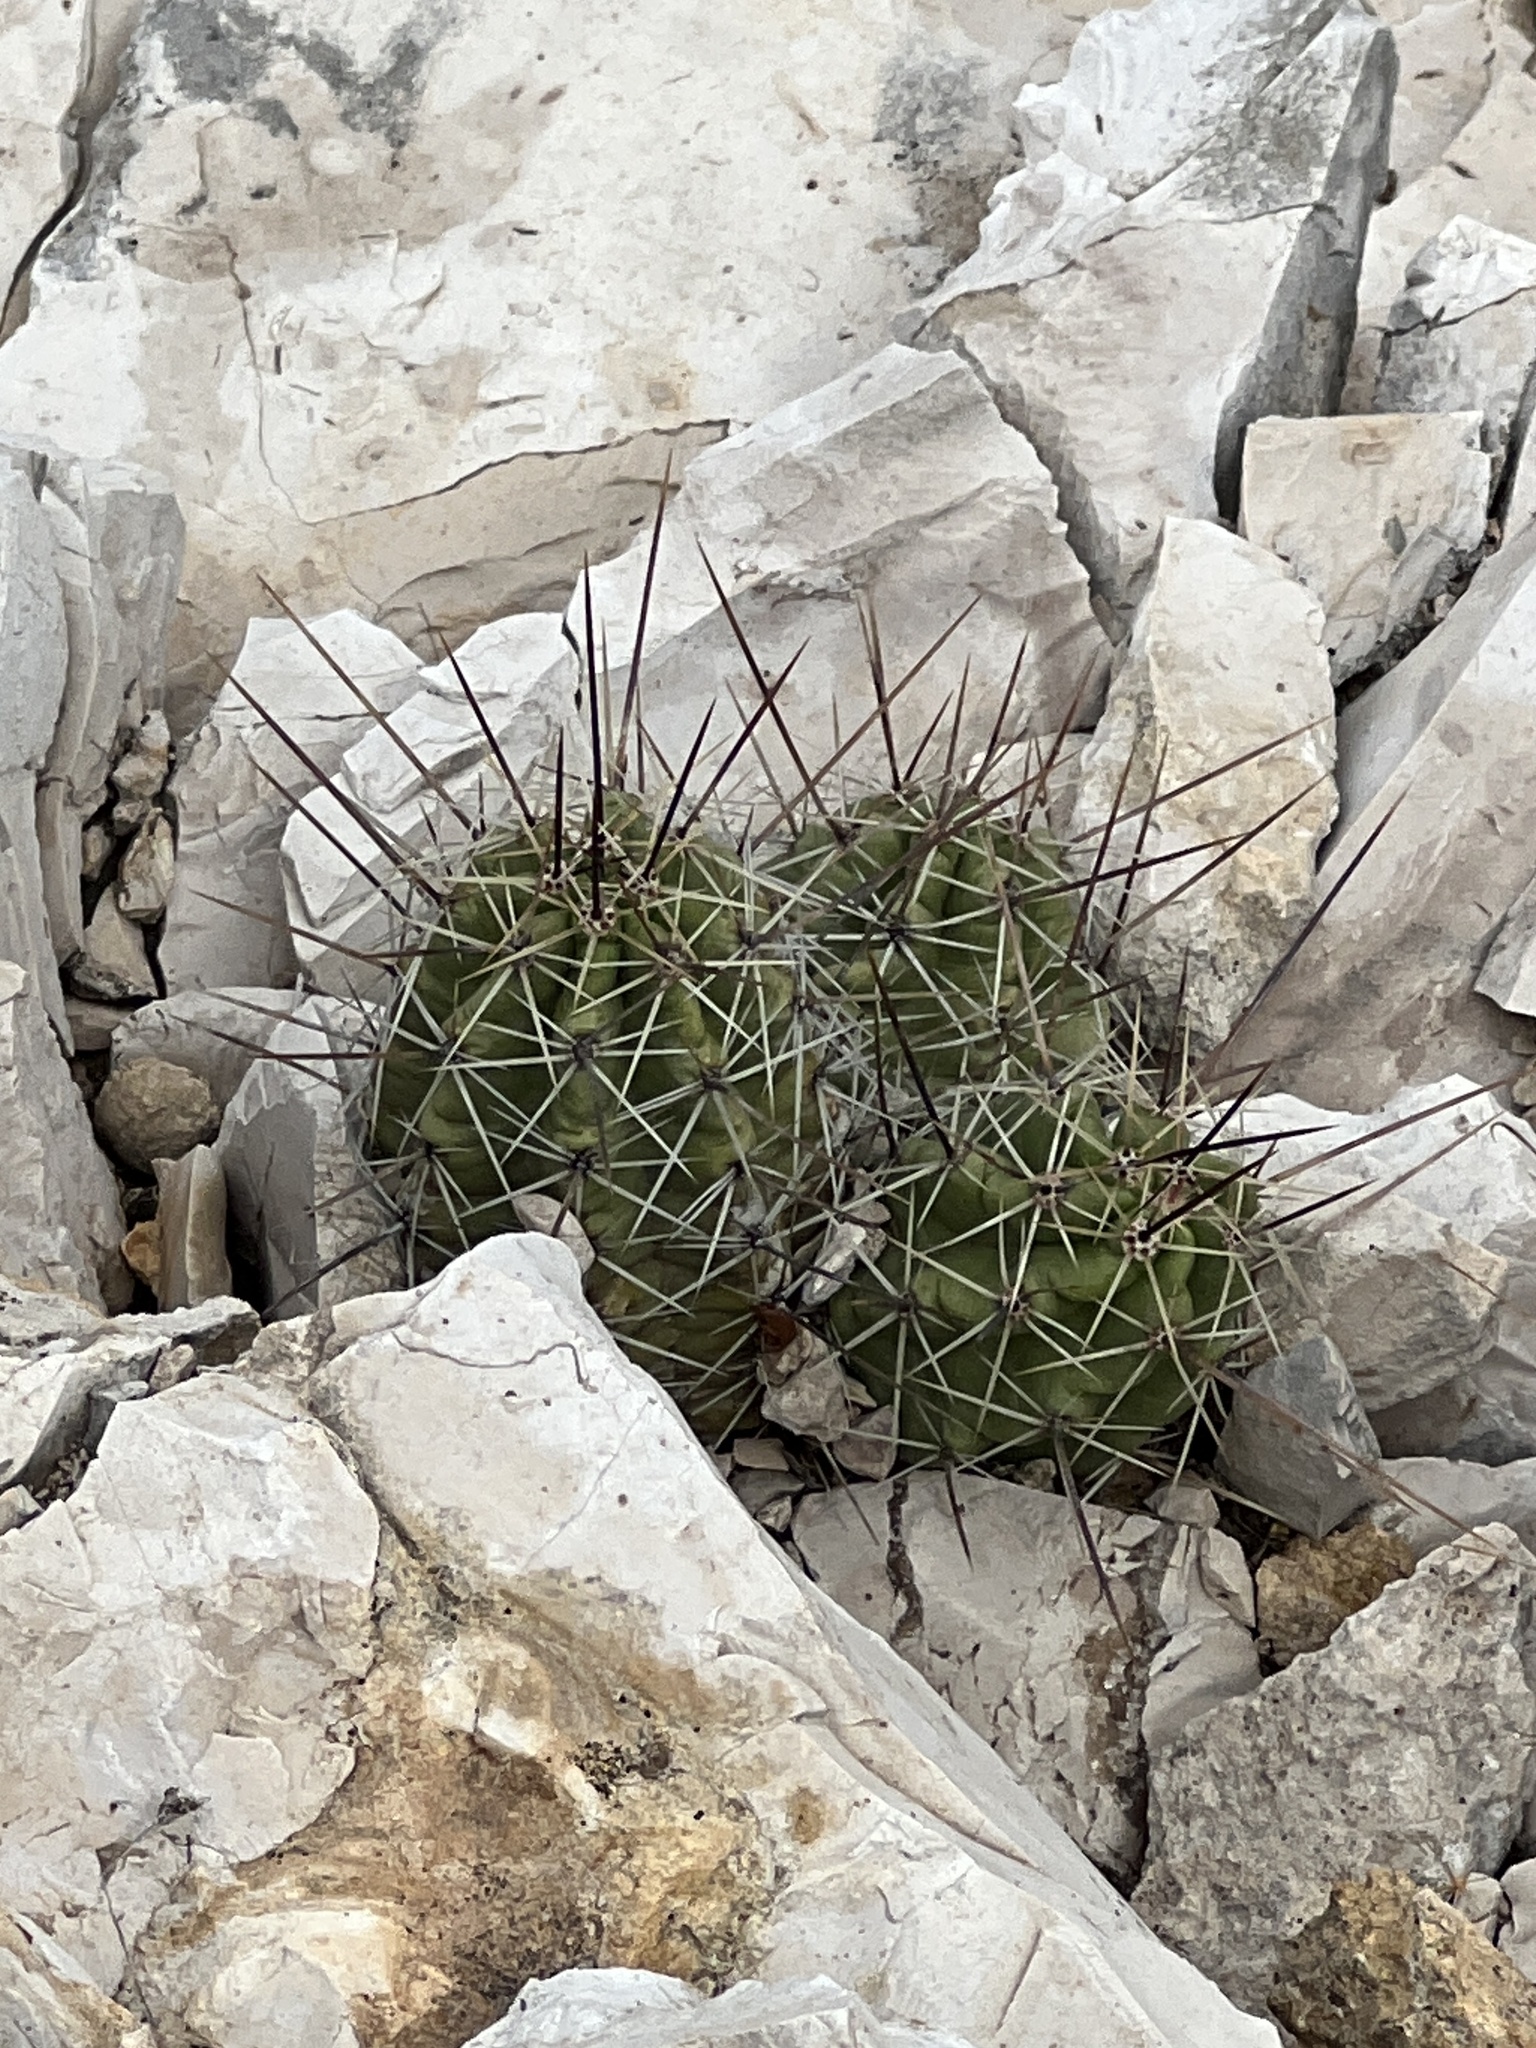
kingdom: Plantae
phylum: Tracheophyta
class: Magnoliopsida
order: Caryophyllales
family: Cactaceae
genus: Echinocereus
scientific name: Echinocereus enneacanthus
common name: Pitaya
